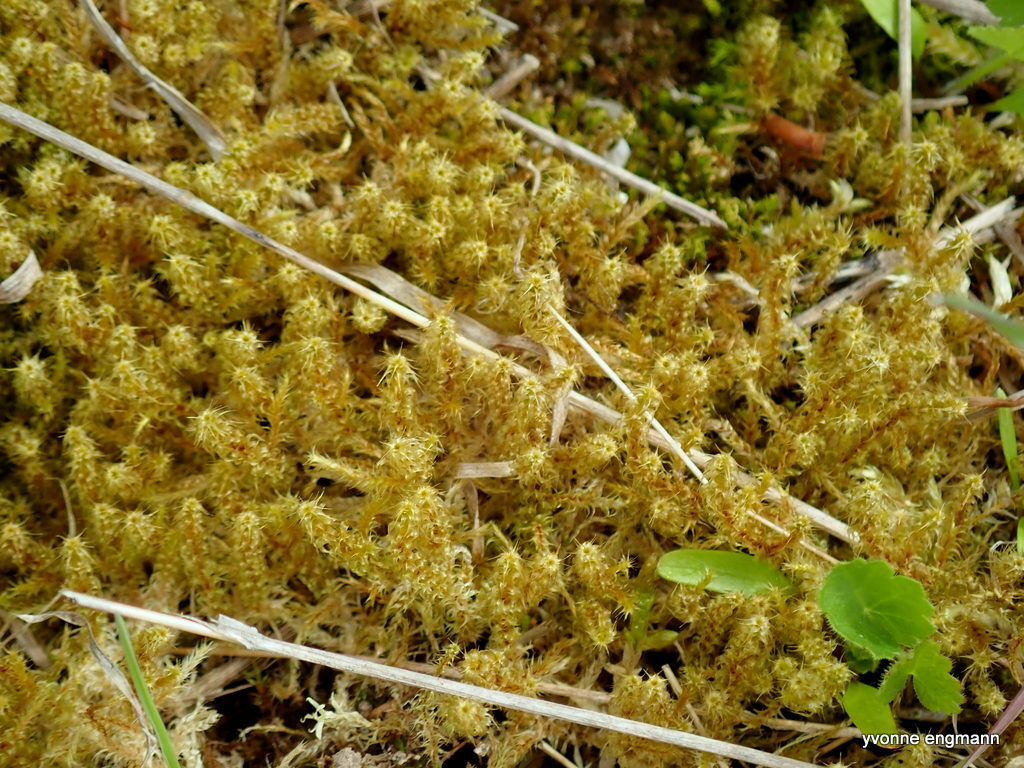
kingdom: Plantae
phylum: Bryophyta
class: Bryopsida
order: Hypnales
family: Hylocomiaceae
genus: Rhytidiadelphus
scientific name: Rhytidiadelphus squarrosus
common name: Springy turf-moss
